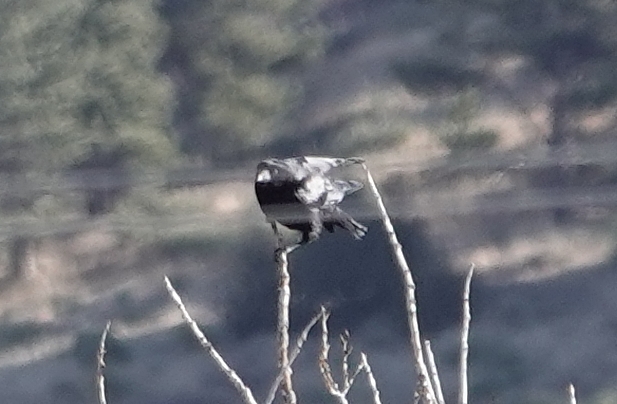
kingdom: Animalia
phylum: Chordata
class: Aves
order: Passeriformes
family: Corvidae
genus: Corvus
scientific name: Corvus brachyrhynchos
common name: American crow
